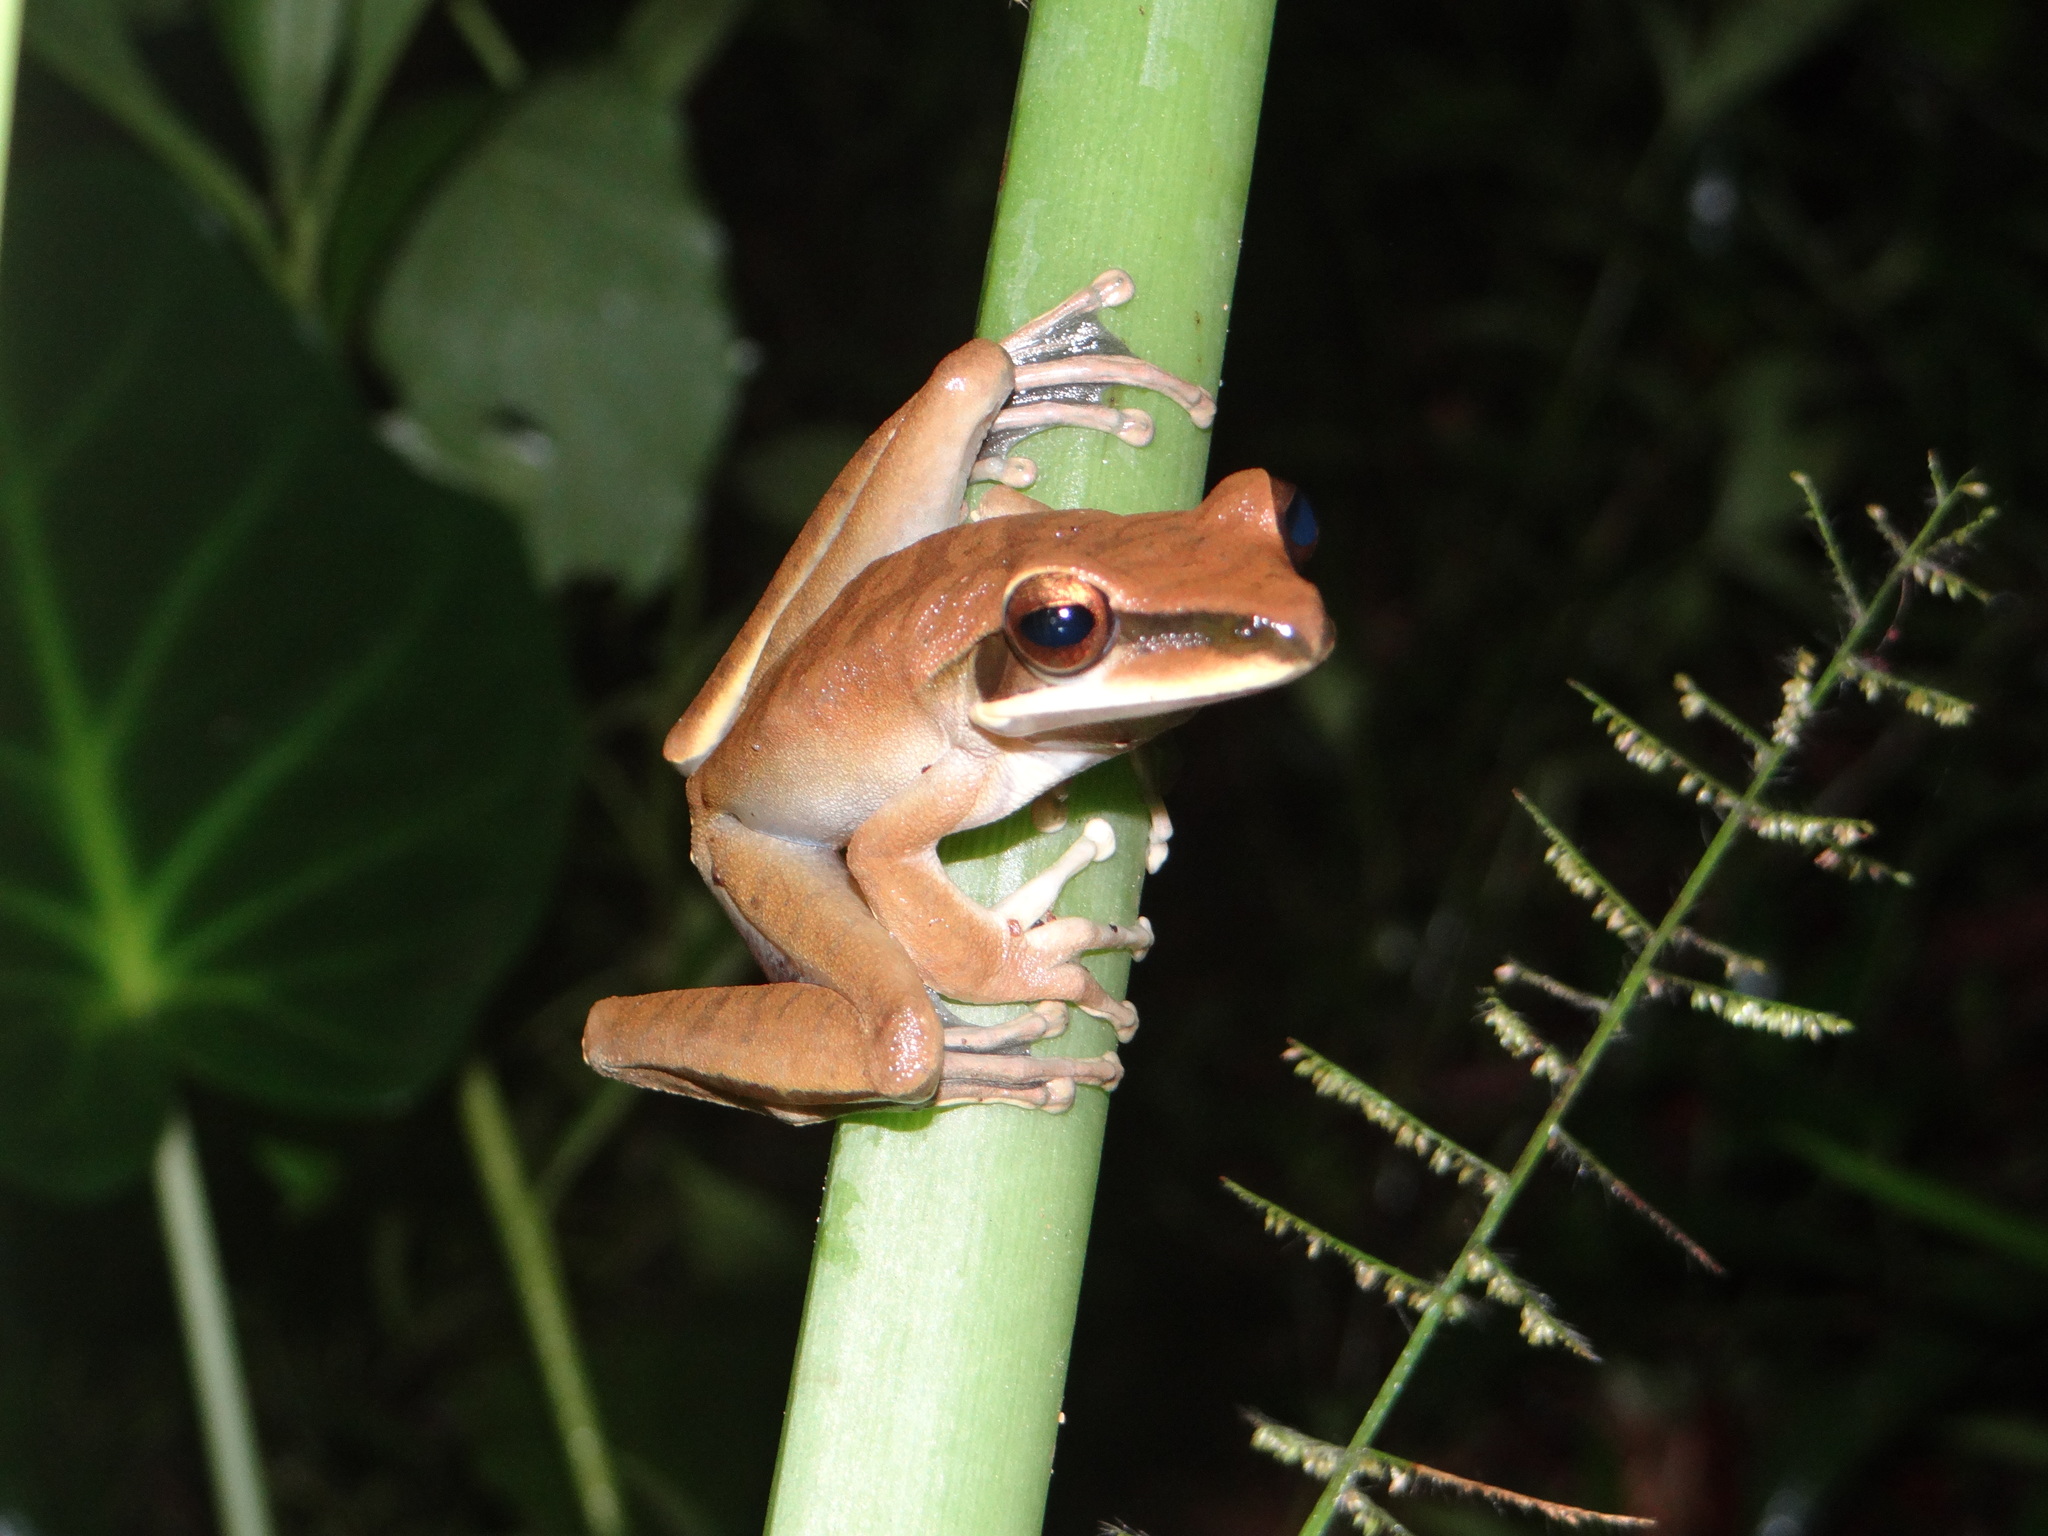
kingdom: Animalia
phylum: Chordata
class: Amphibia
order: Anura
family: Hylidae
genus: Boana
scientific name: Boana lanciformis
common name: Rana lanceolada commún
